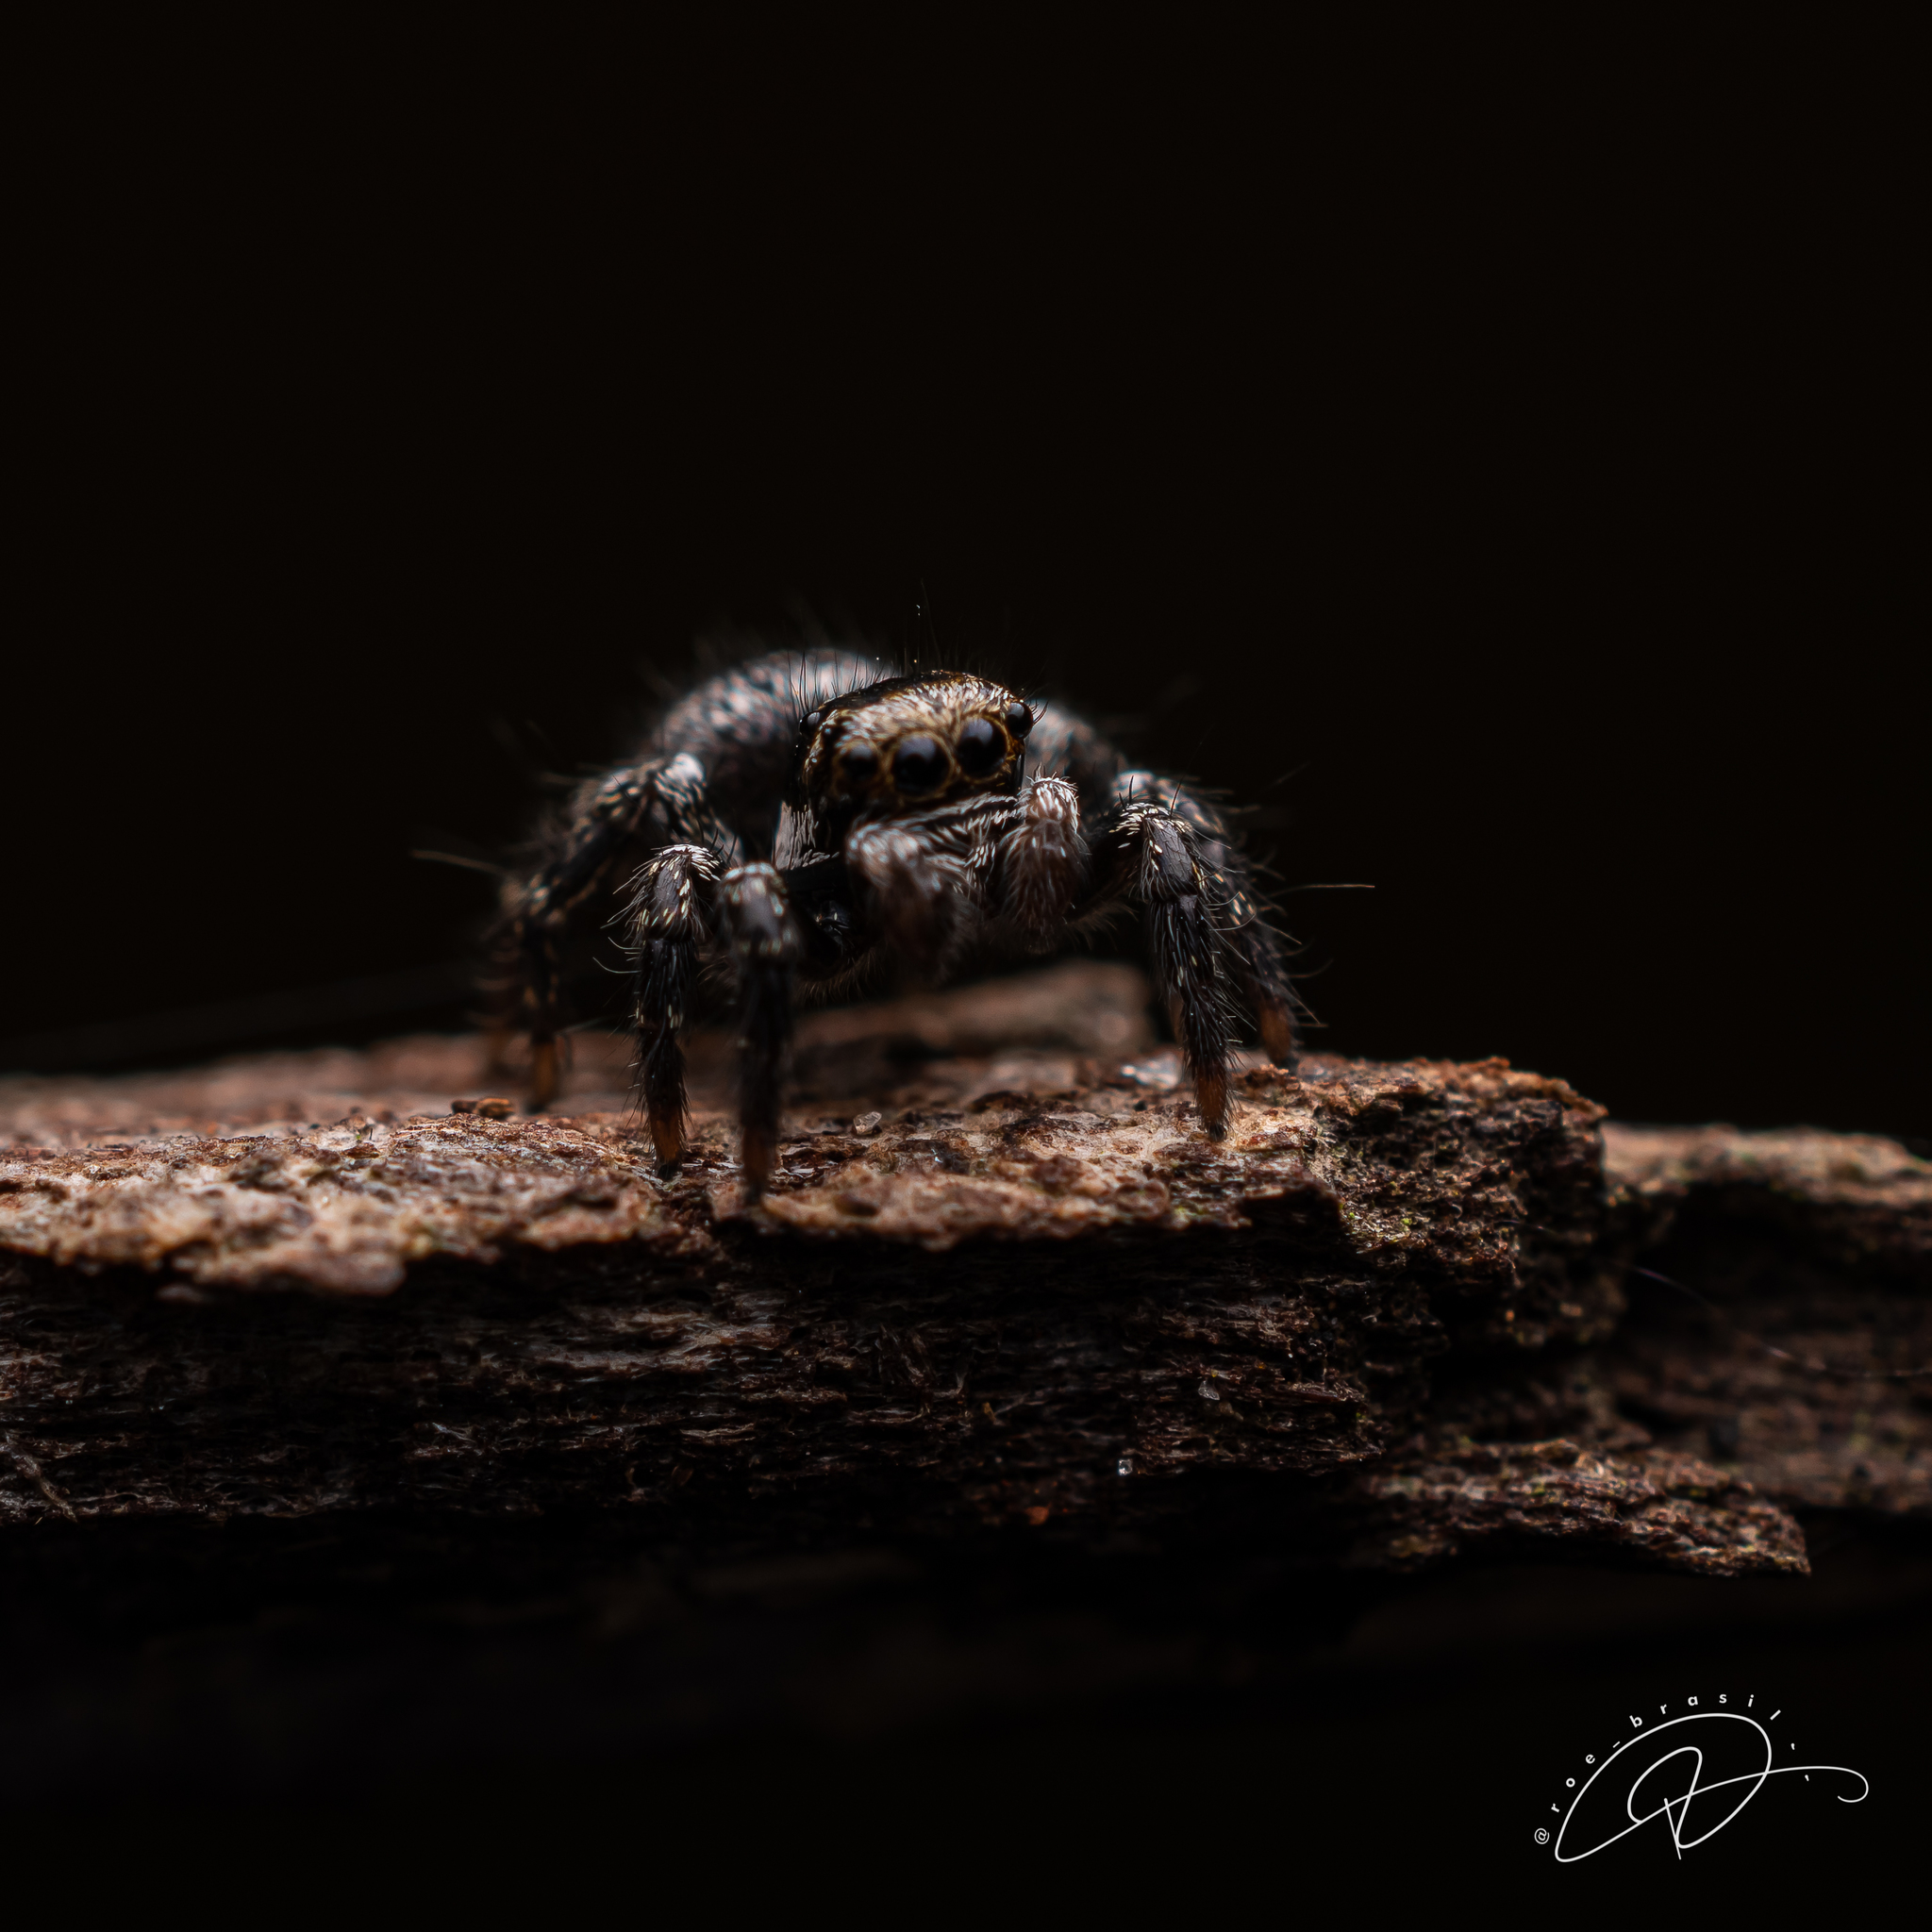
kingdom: Animalia
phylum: Arthropoda
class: Arachnida
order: Araneae
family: Salticidae
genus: Corythalia
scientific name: Corythalia conferta
